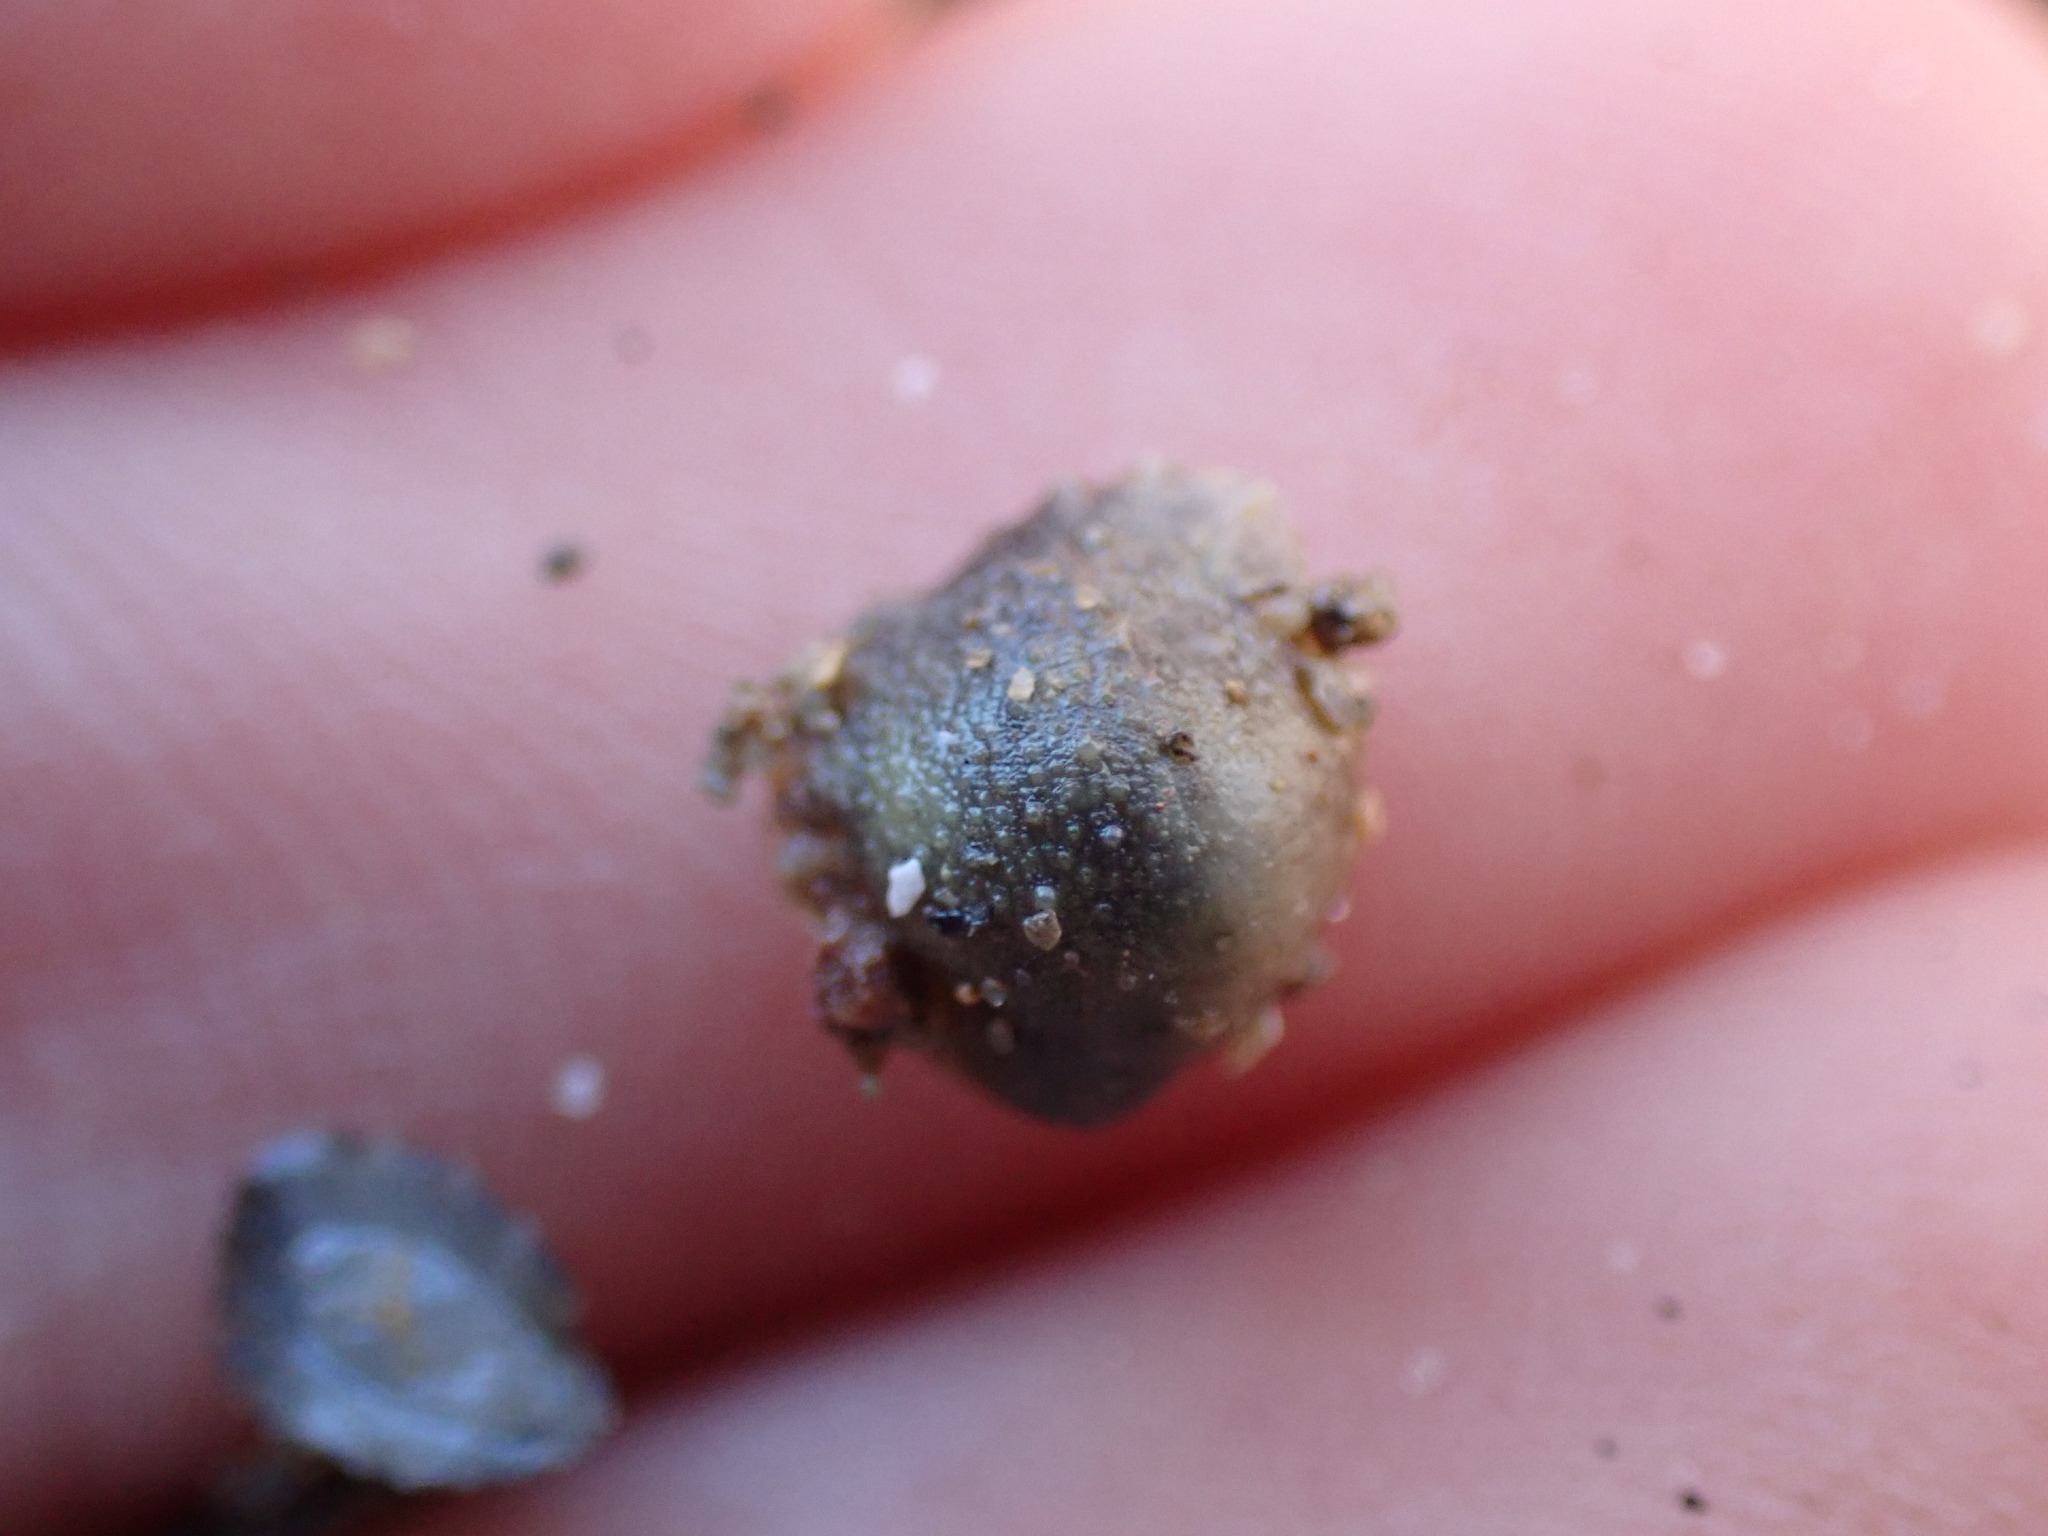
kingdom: Animalia
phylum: Mollusca
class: Gastropoda
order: Systellommatophora
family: Onchidiidae
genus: Onchidella
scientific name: Onchidella nigricans
